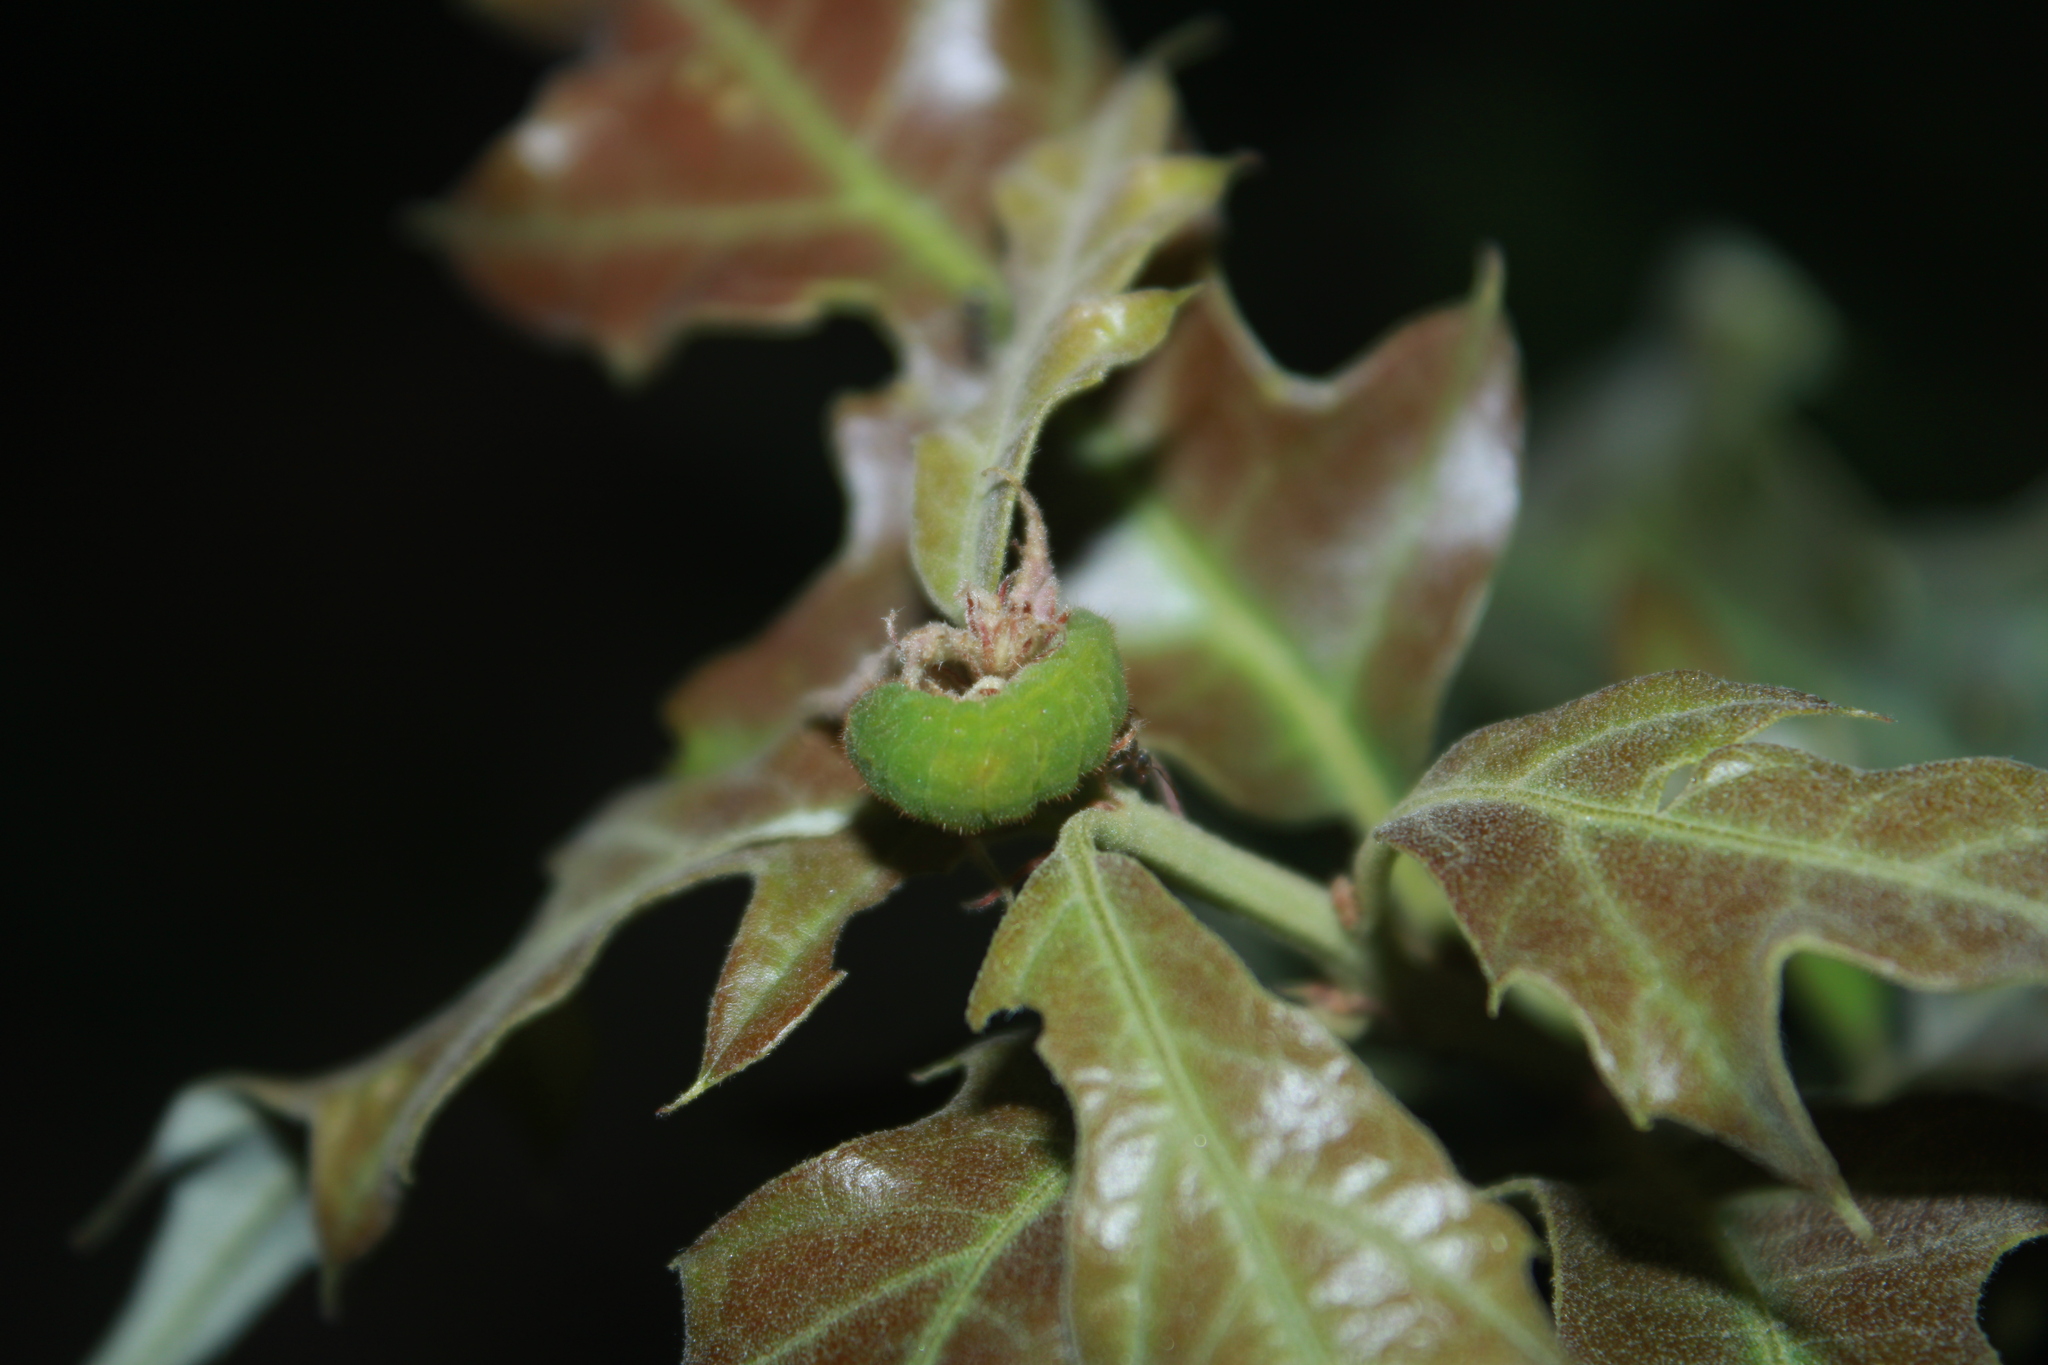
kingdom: Animalia
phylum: Arthropoda
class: Insecta
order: Lepidoptera
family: Lycaenidae
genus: Satyrium
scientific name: Satyrium edwardsii
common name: Edwards' hairstreak
